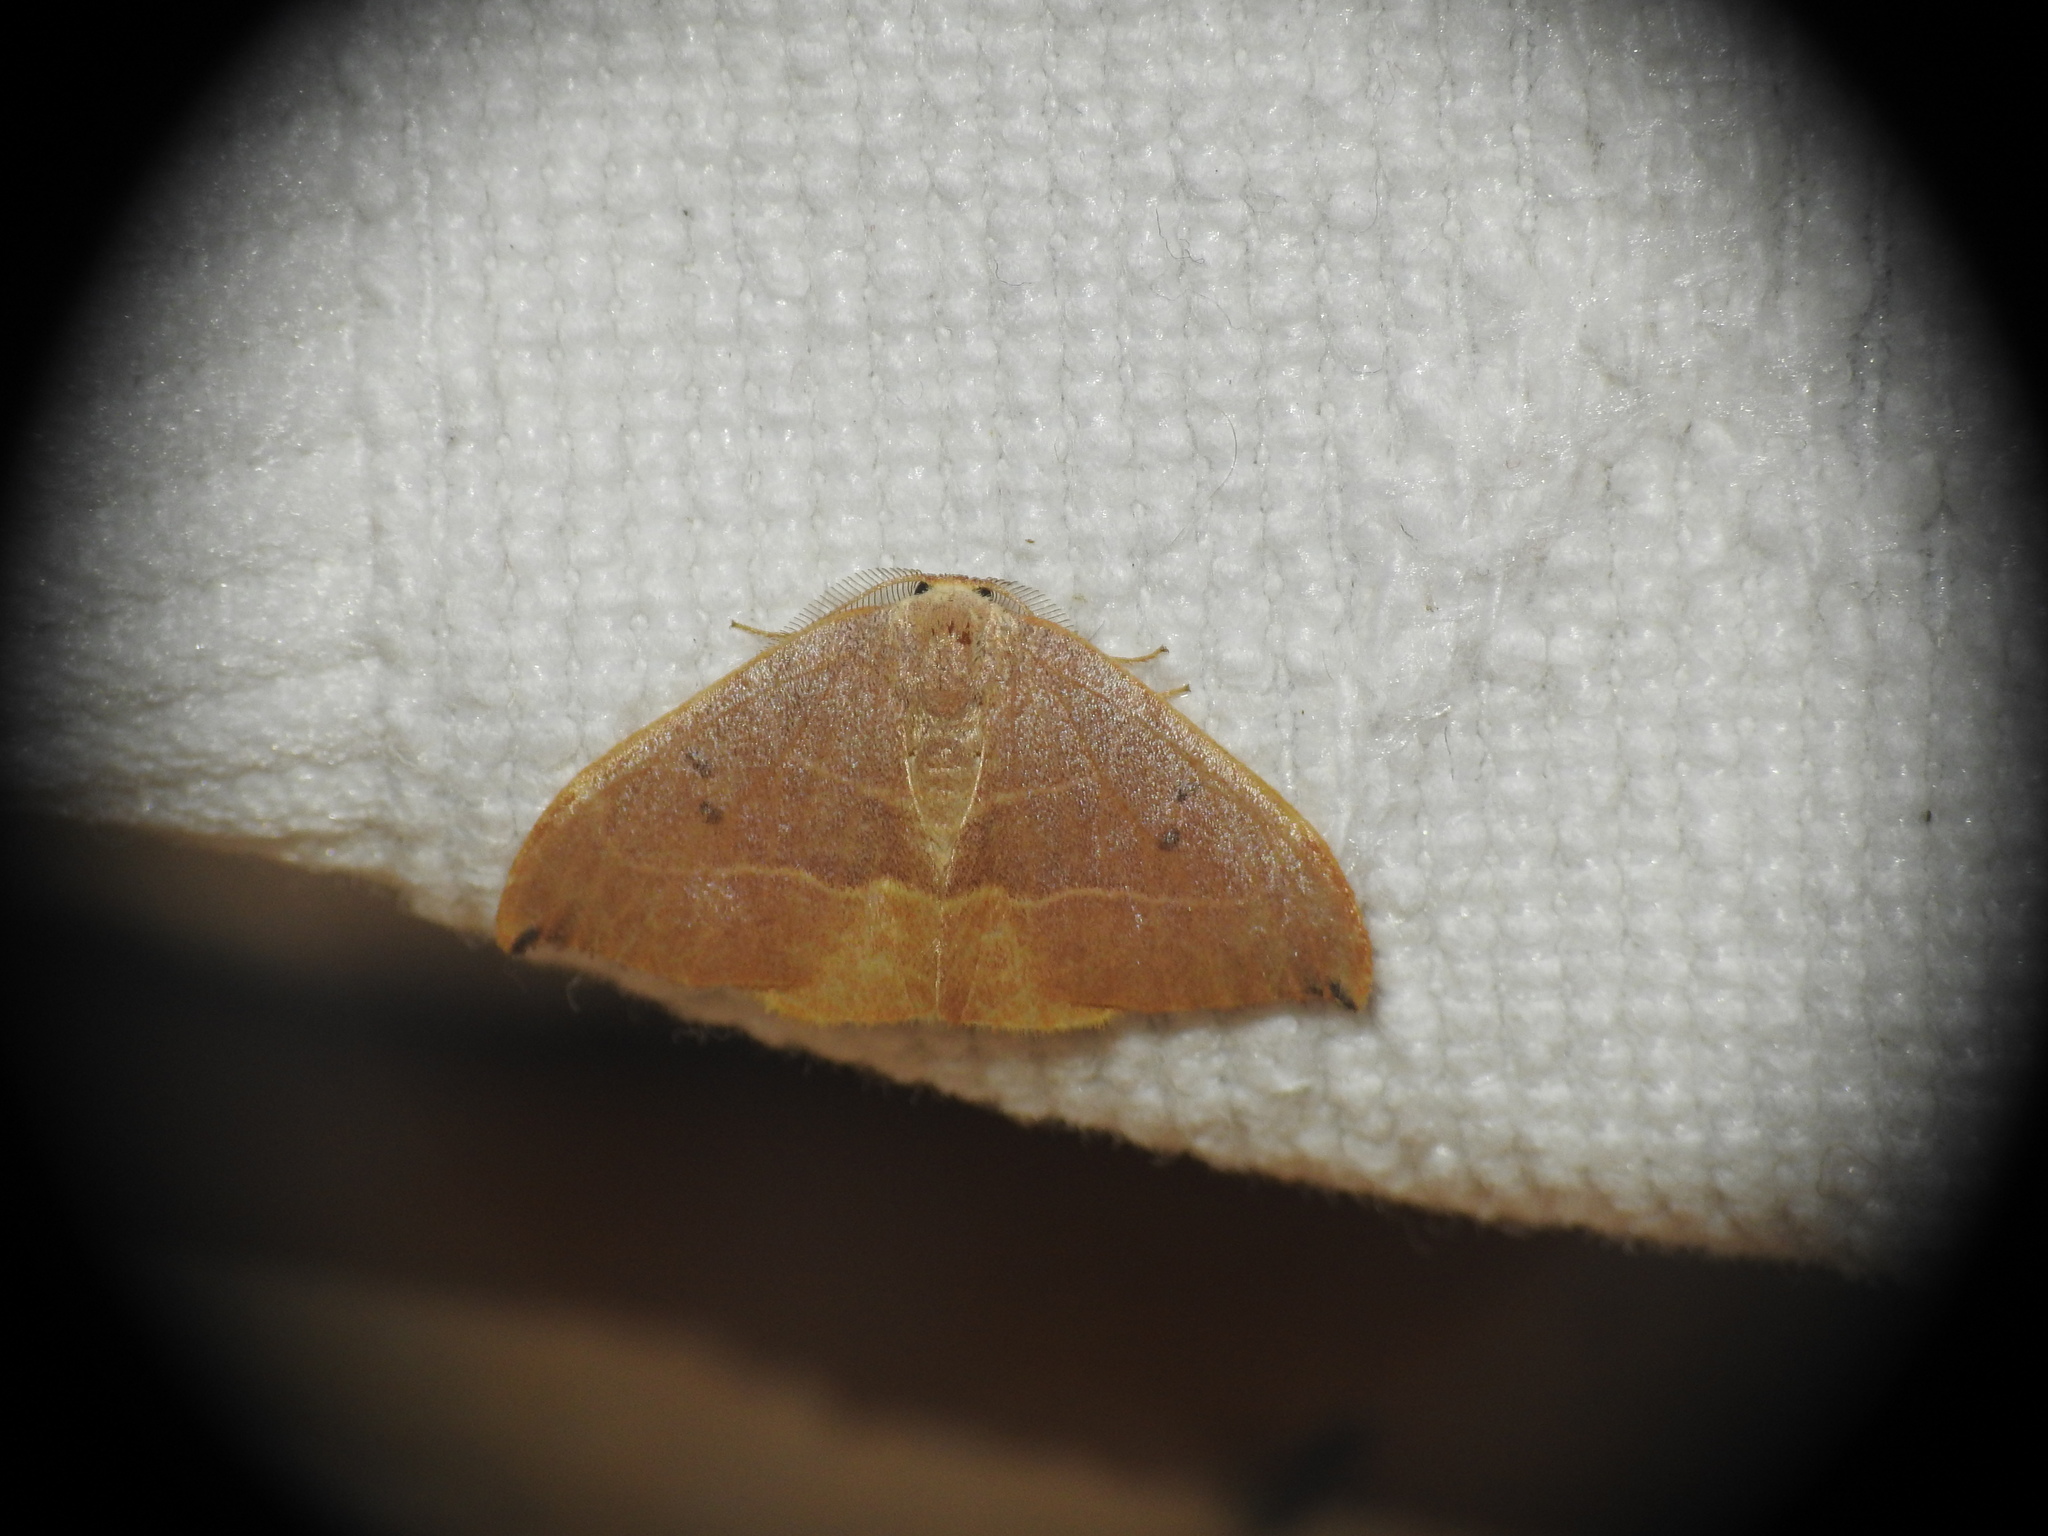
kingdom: Animalia
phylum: Arthropoda
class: Insecta
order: Lepidoptera
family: Drepanidae
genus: Watsonalla
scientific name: Watsonalla uncinula
